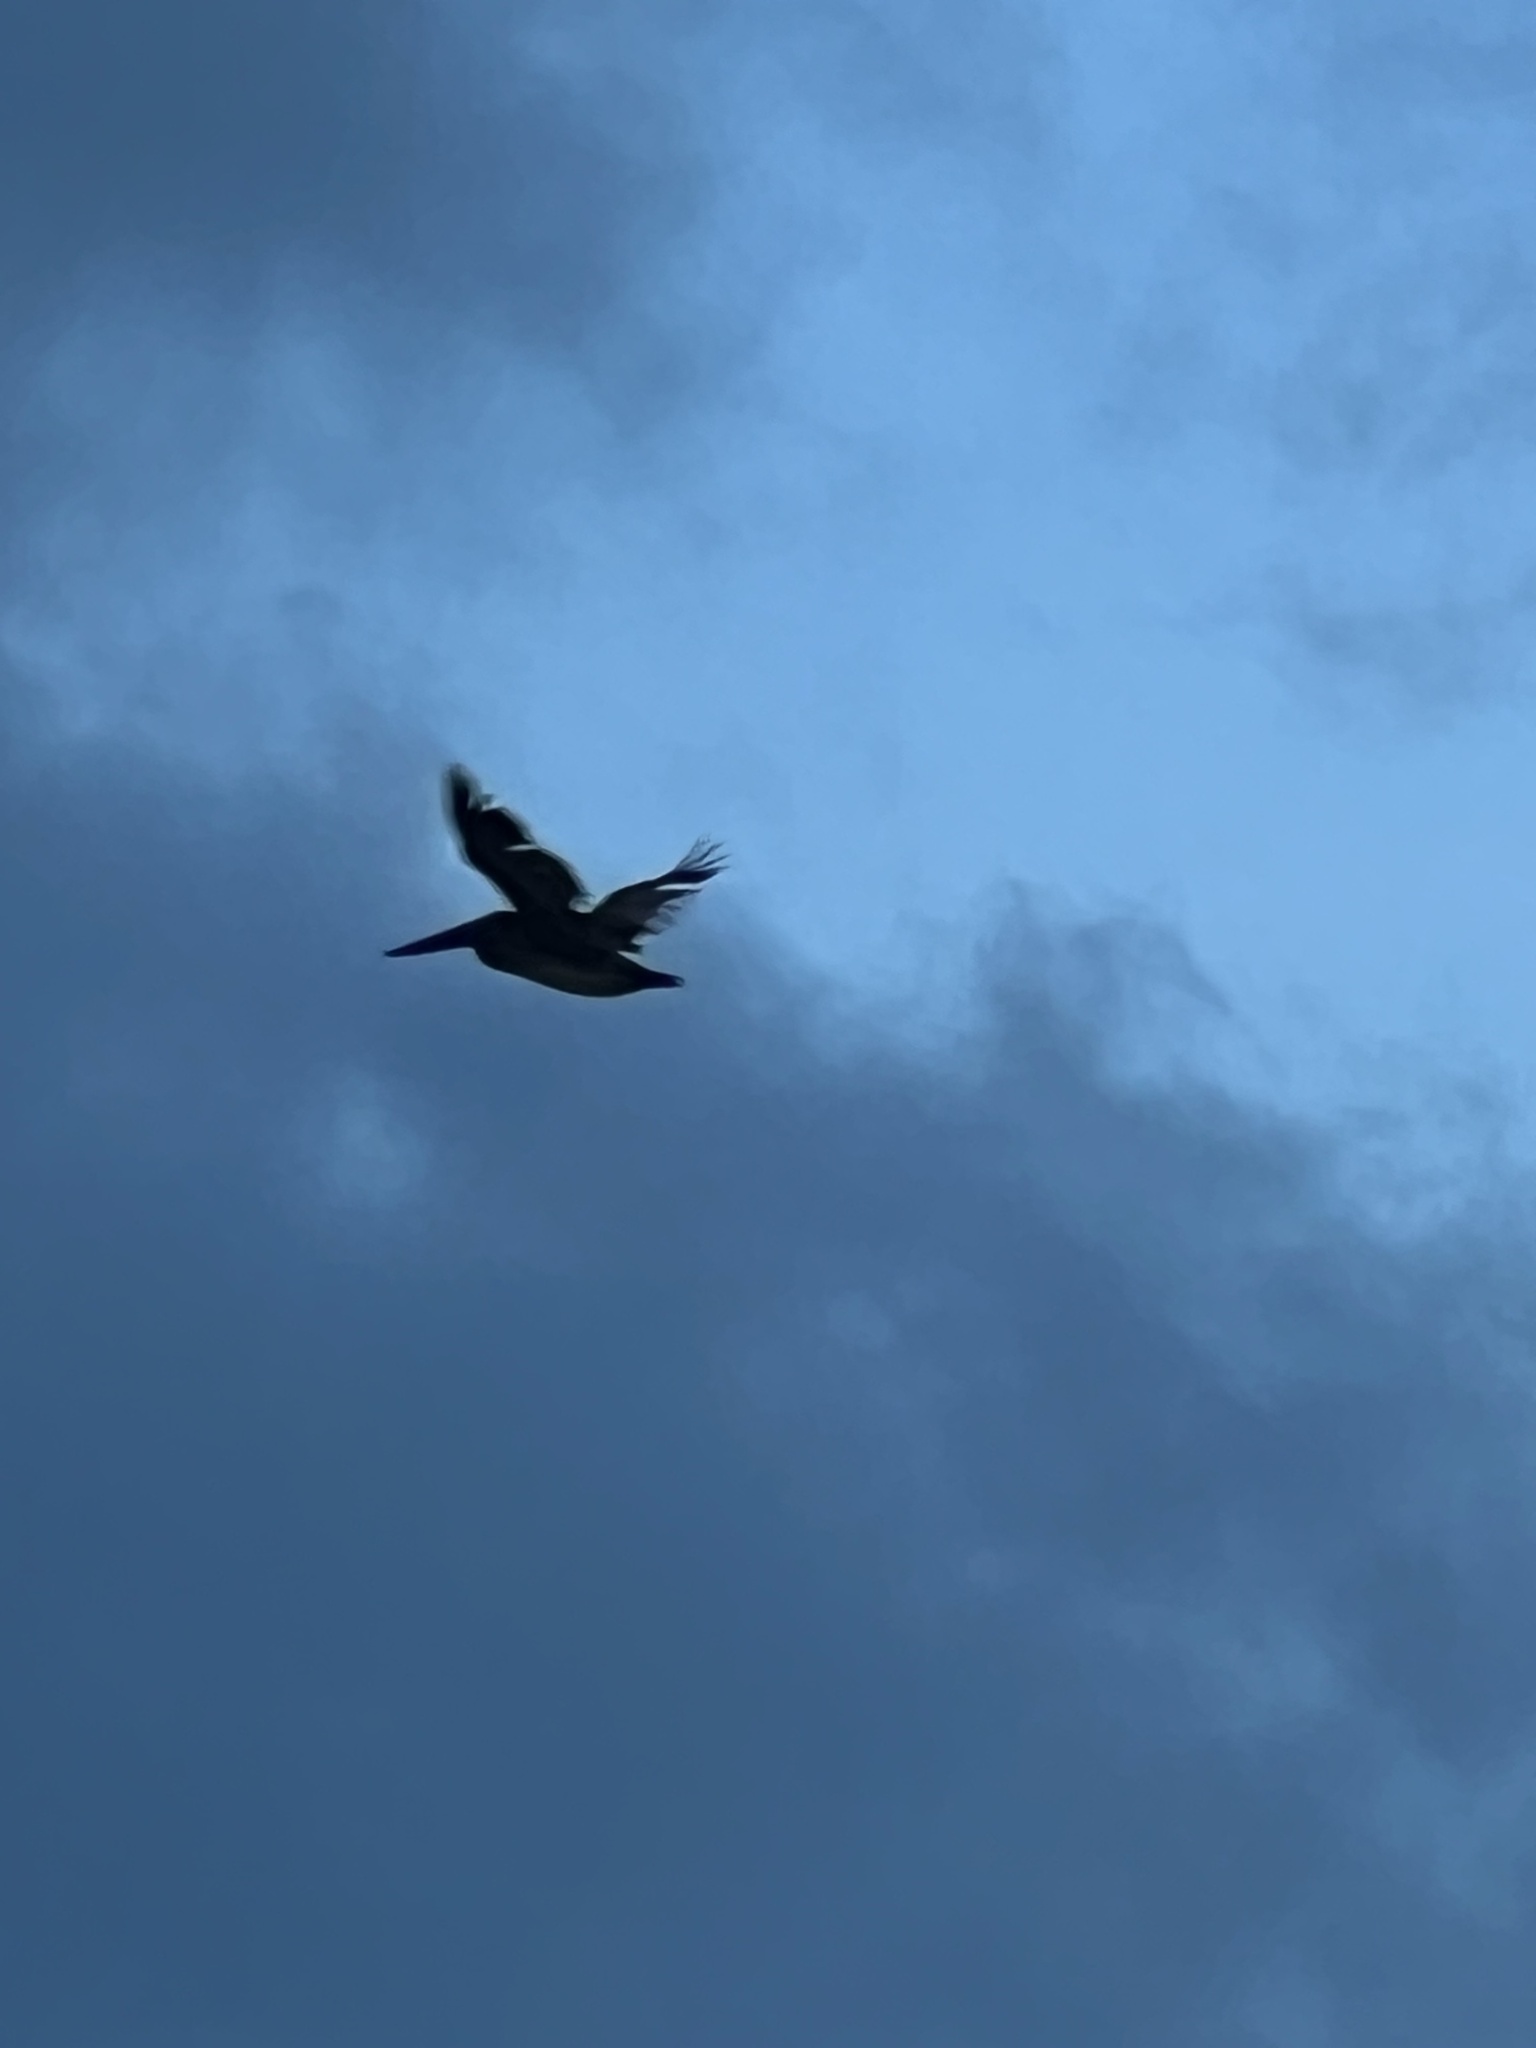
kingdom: Animalia
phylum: Chordata
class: Aves
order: Pelecaniformes
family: Pelecanidae
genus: Pelecanus
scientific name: Pelecanus occidentalis
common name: Brown pelican
